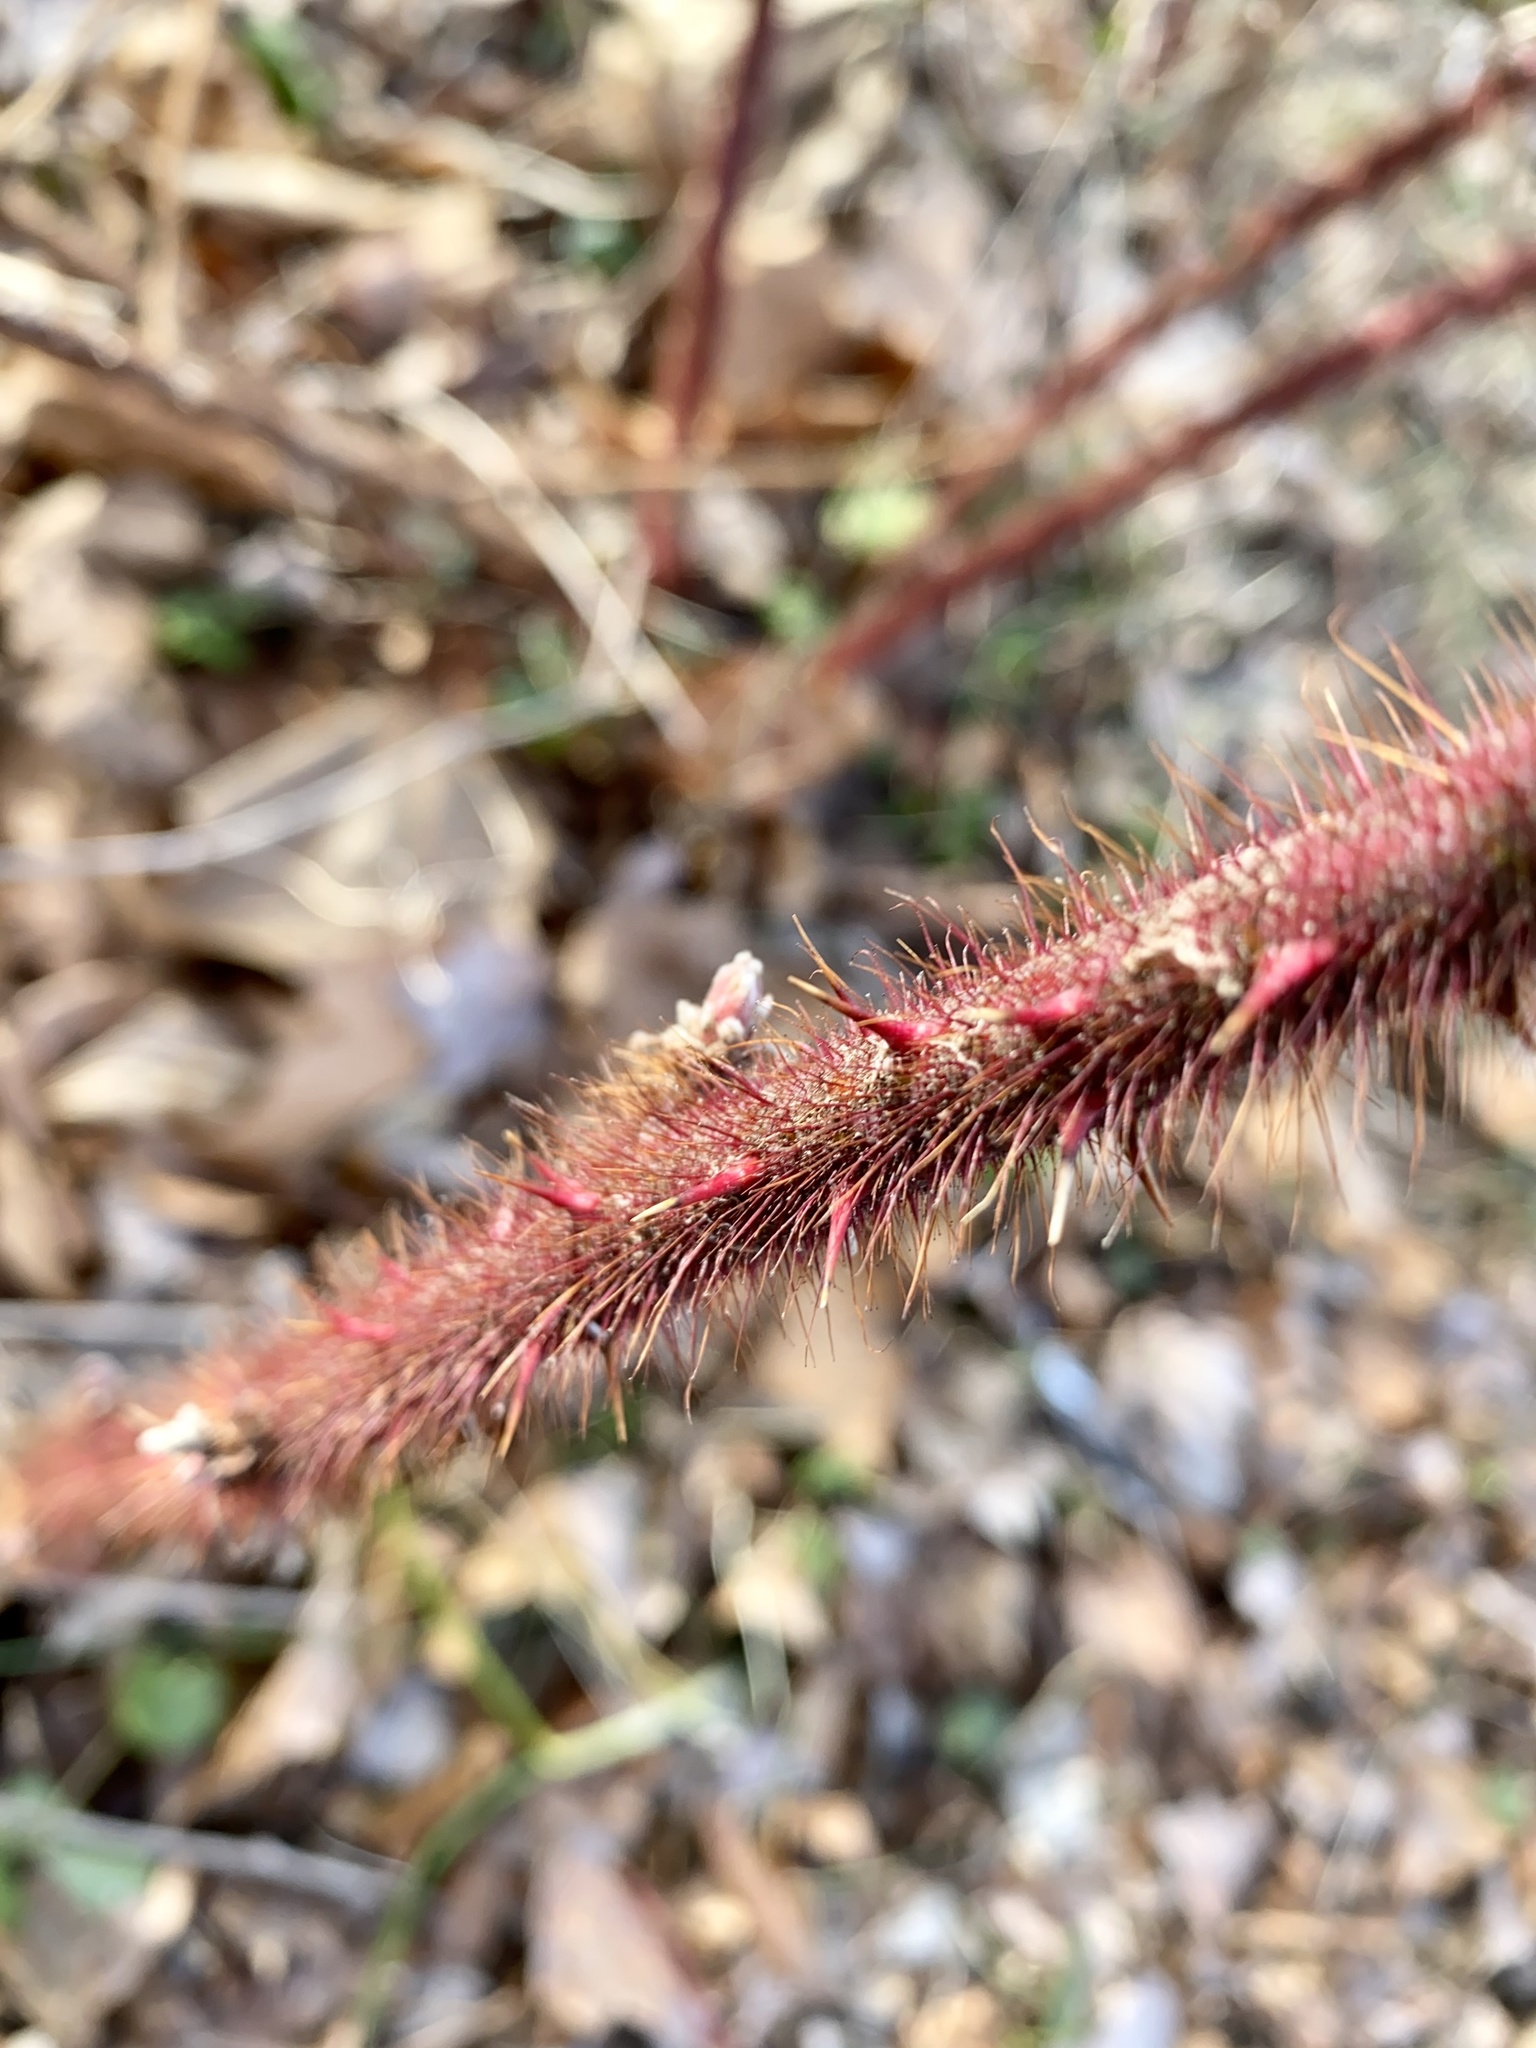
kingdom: Plantae
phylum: Tracheophyta
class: Magnoliopsida
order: Rosales
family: Rosaceae
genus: Rubus
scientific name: Rubus phoenicolasius
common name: Japanese wineberry
